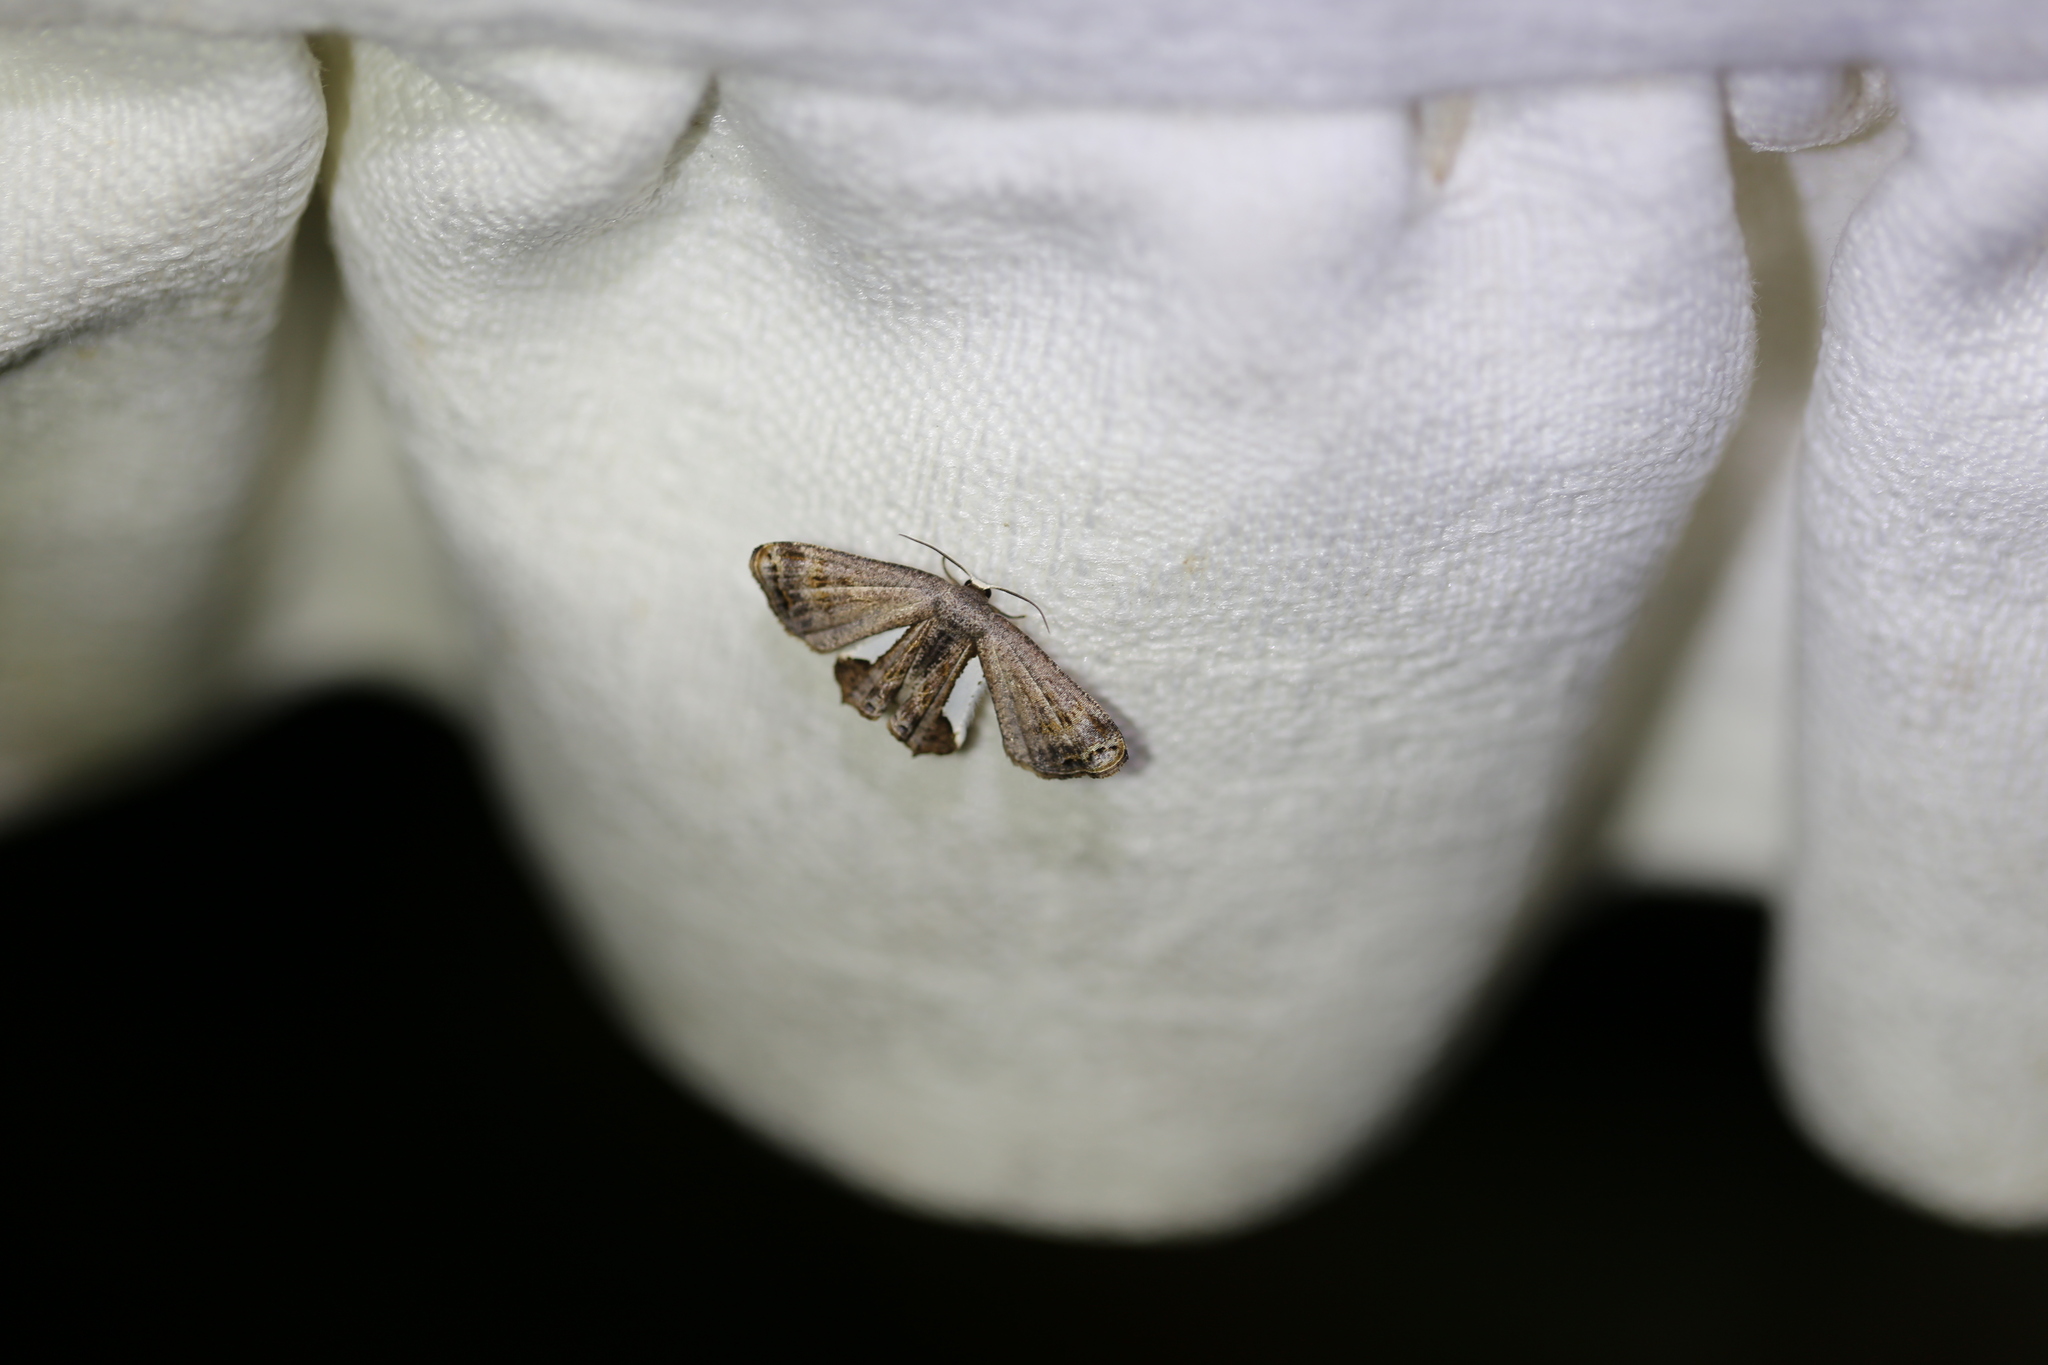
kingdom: Animalia
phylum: Arthropoda
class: Insecta
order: Lepidoptera
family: Uraniidae
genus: Phazaca
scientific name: Phazaca decorata
